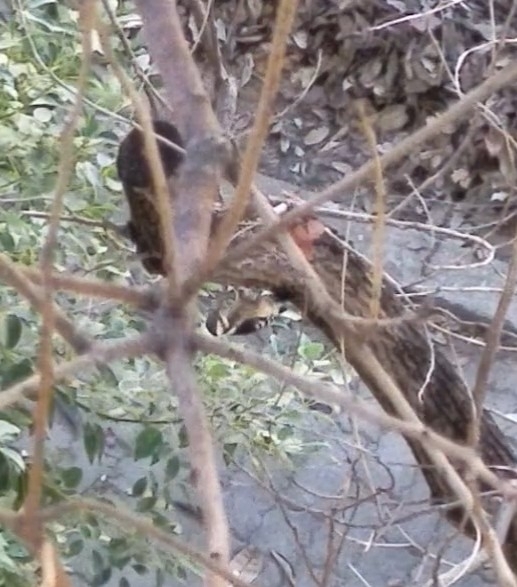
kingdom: Animalia
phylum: Chordata
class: Aves
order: Piciformes
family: Picidae
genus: Yungipicus
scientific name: Yungipicus canicapillus
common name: Grey-capped pygmy woodpecker
